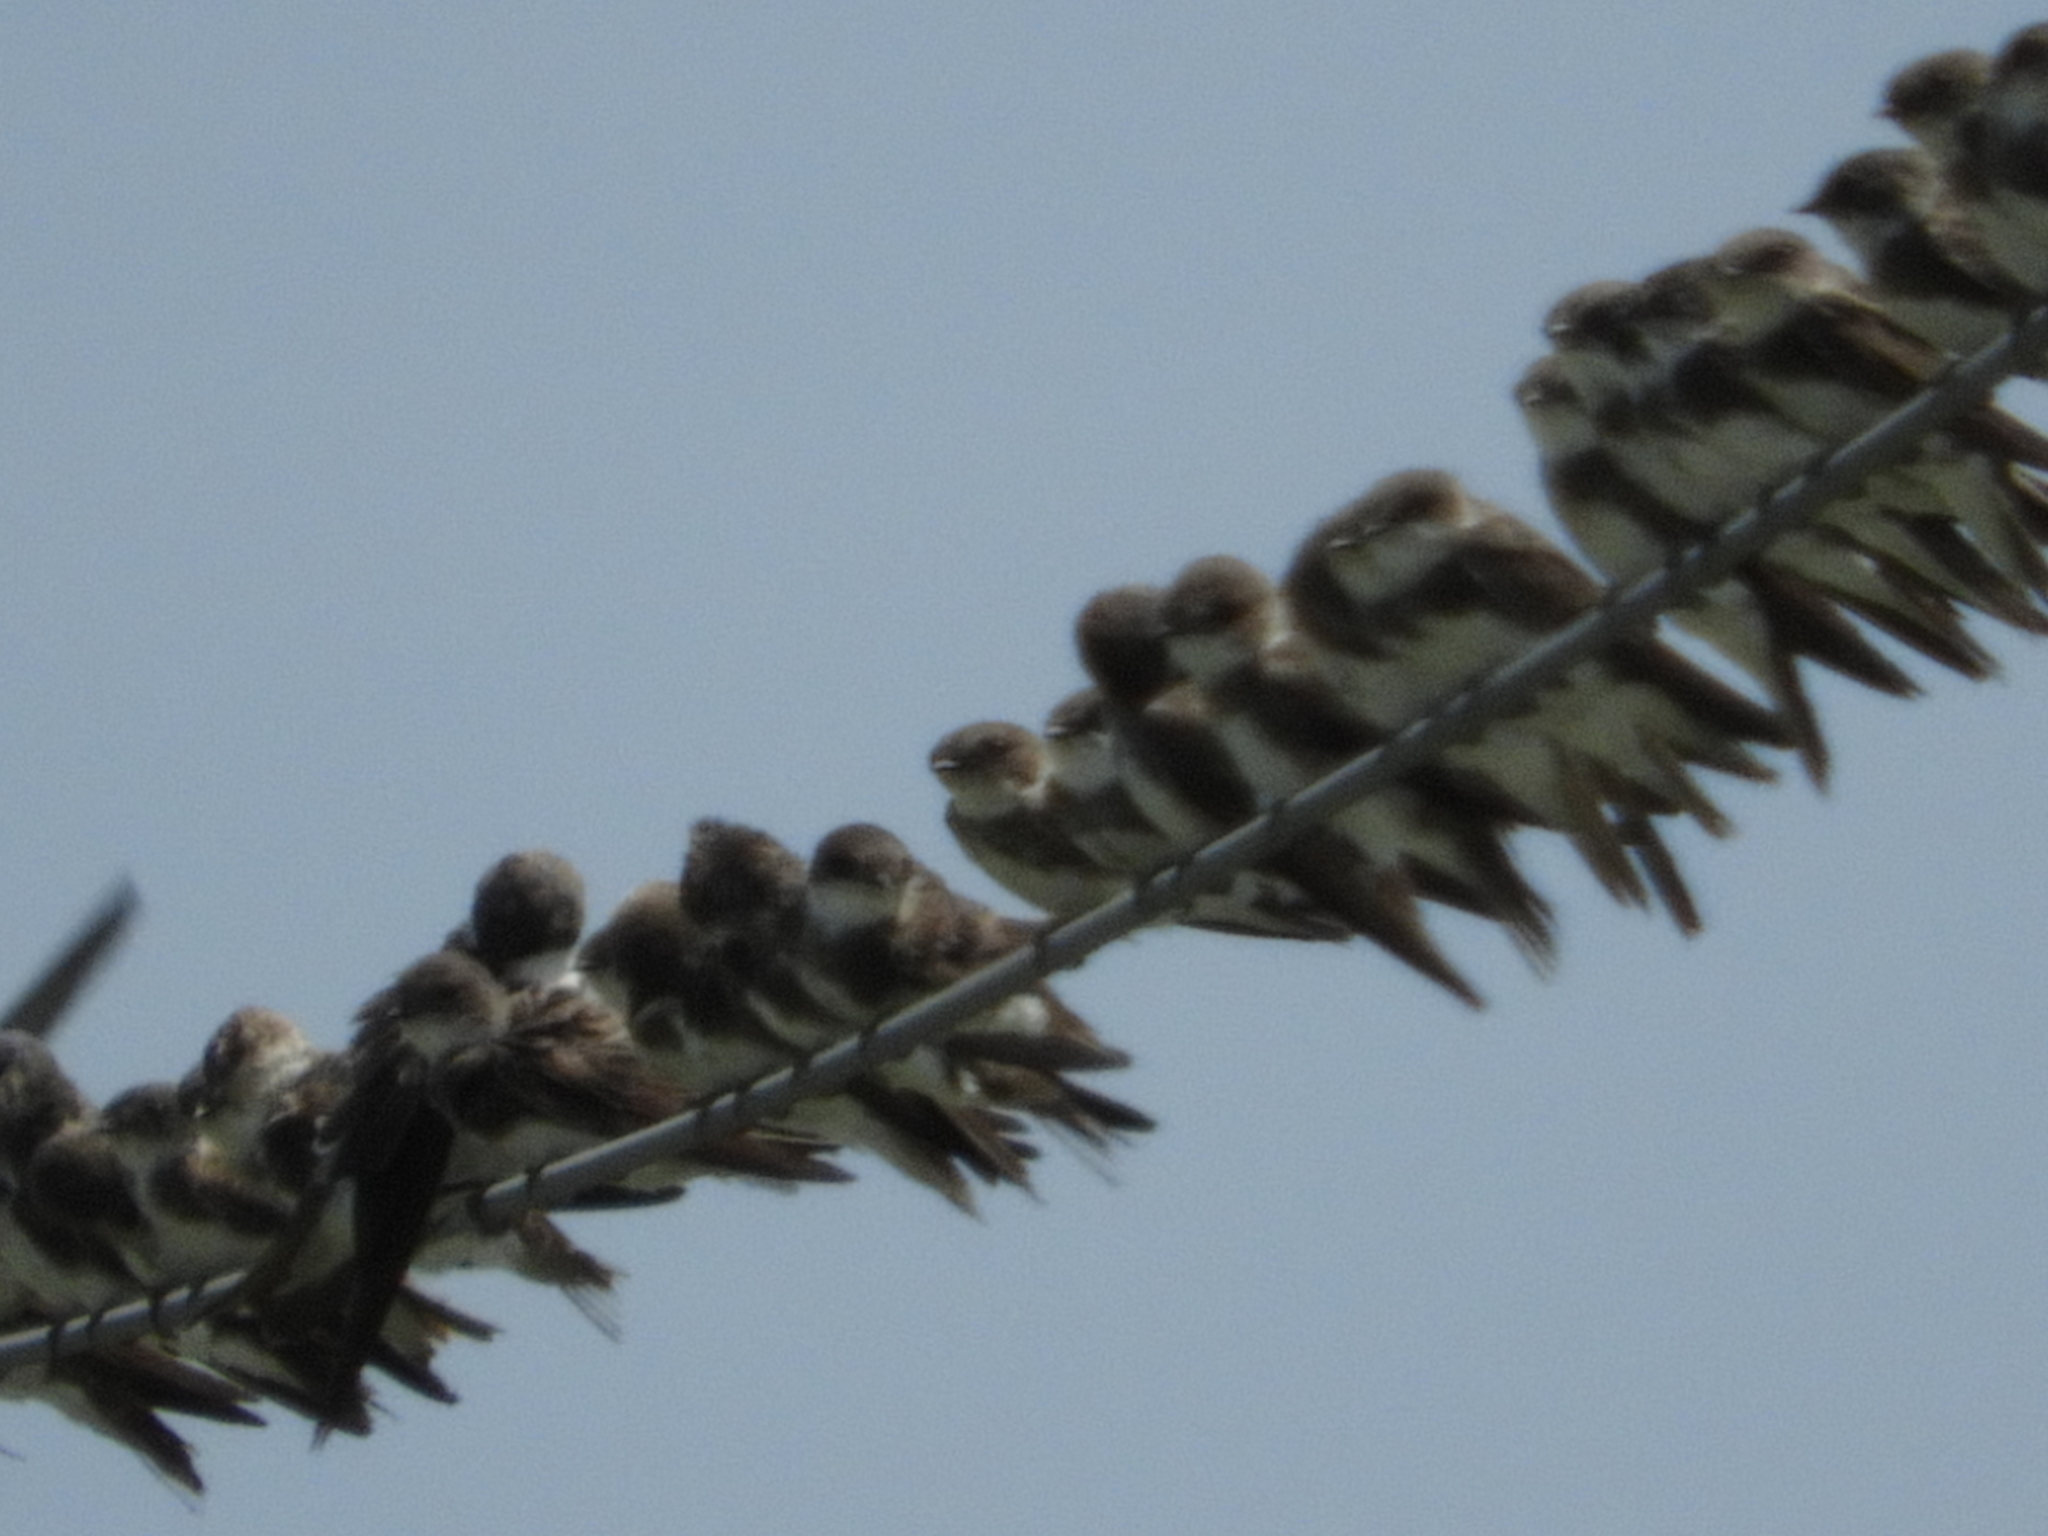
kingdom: Animalia
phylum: Chordata
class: Aves
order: Passeriformes
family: Hirundinidae
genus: Riparia
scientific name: Riparia riparia
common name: Sand martin
